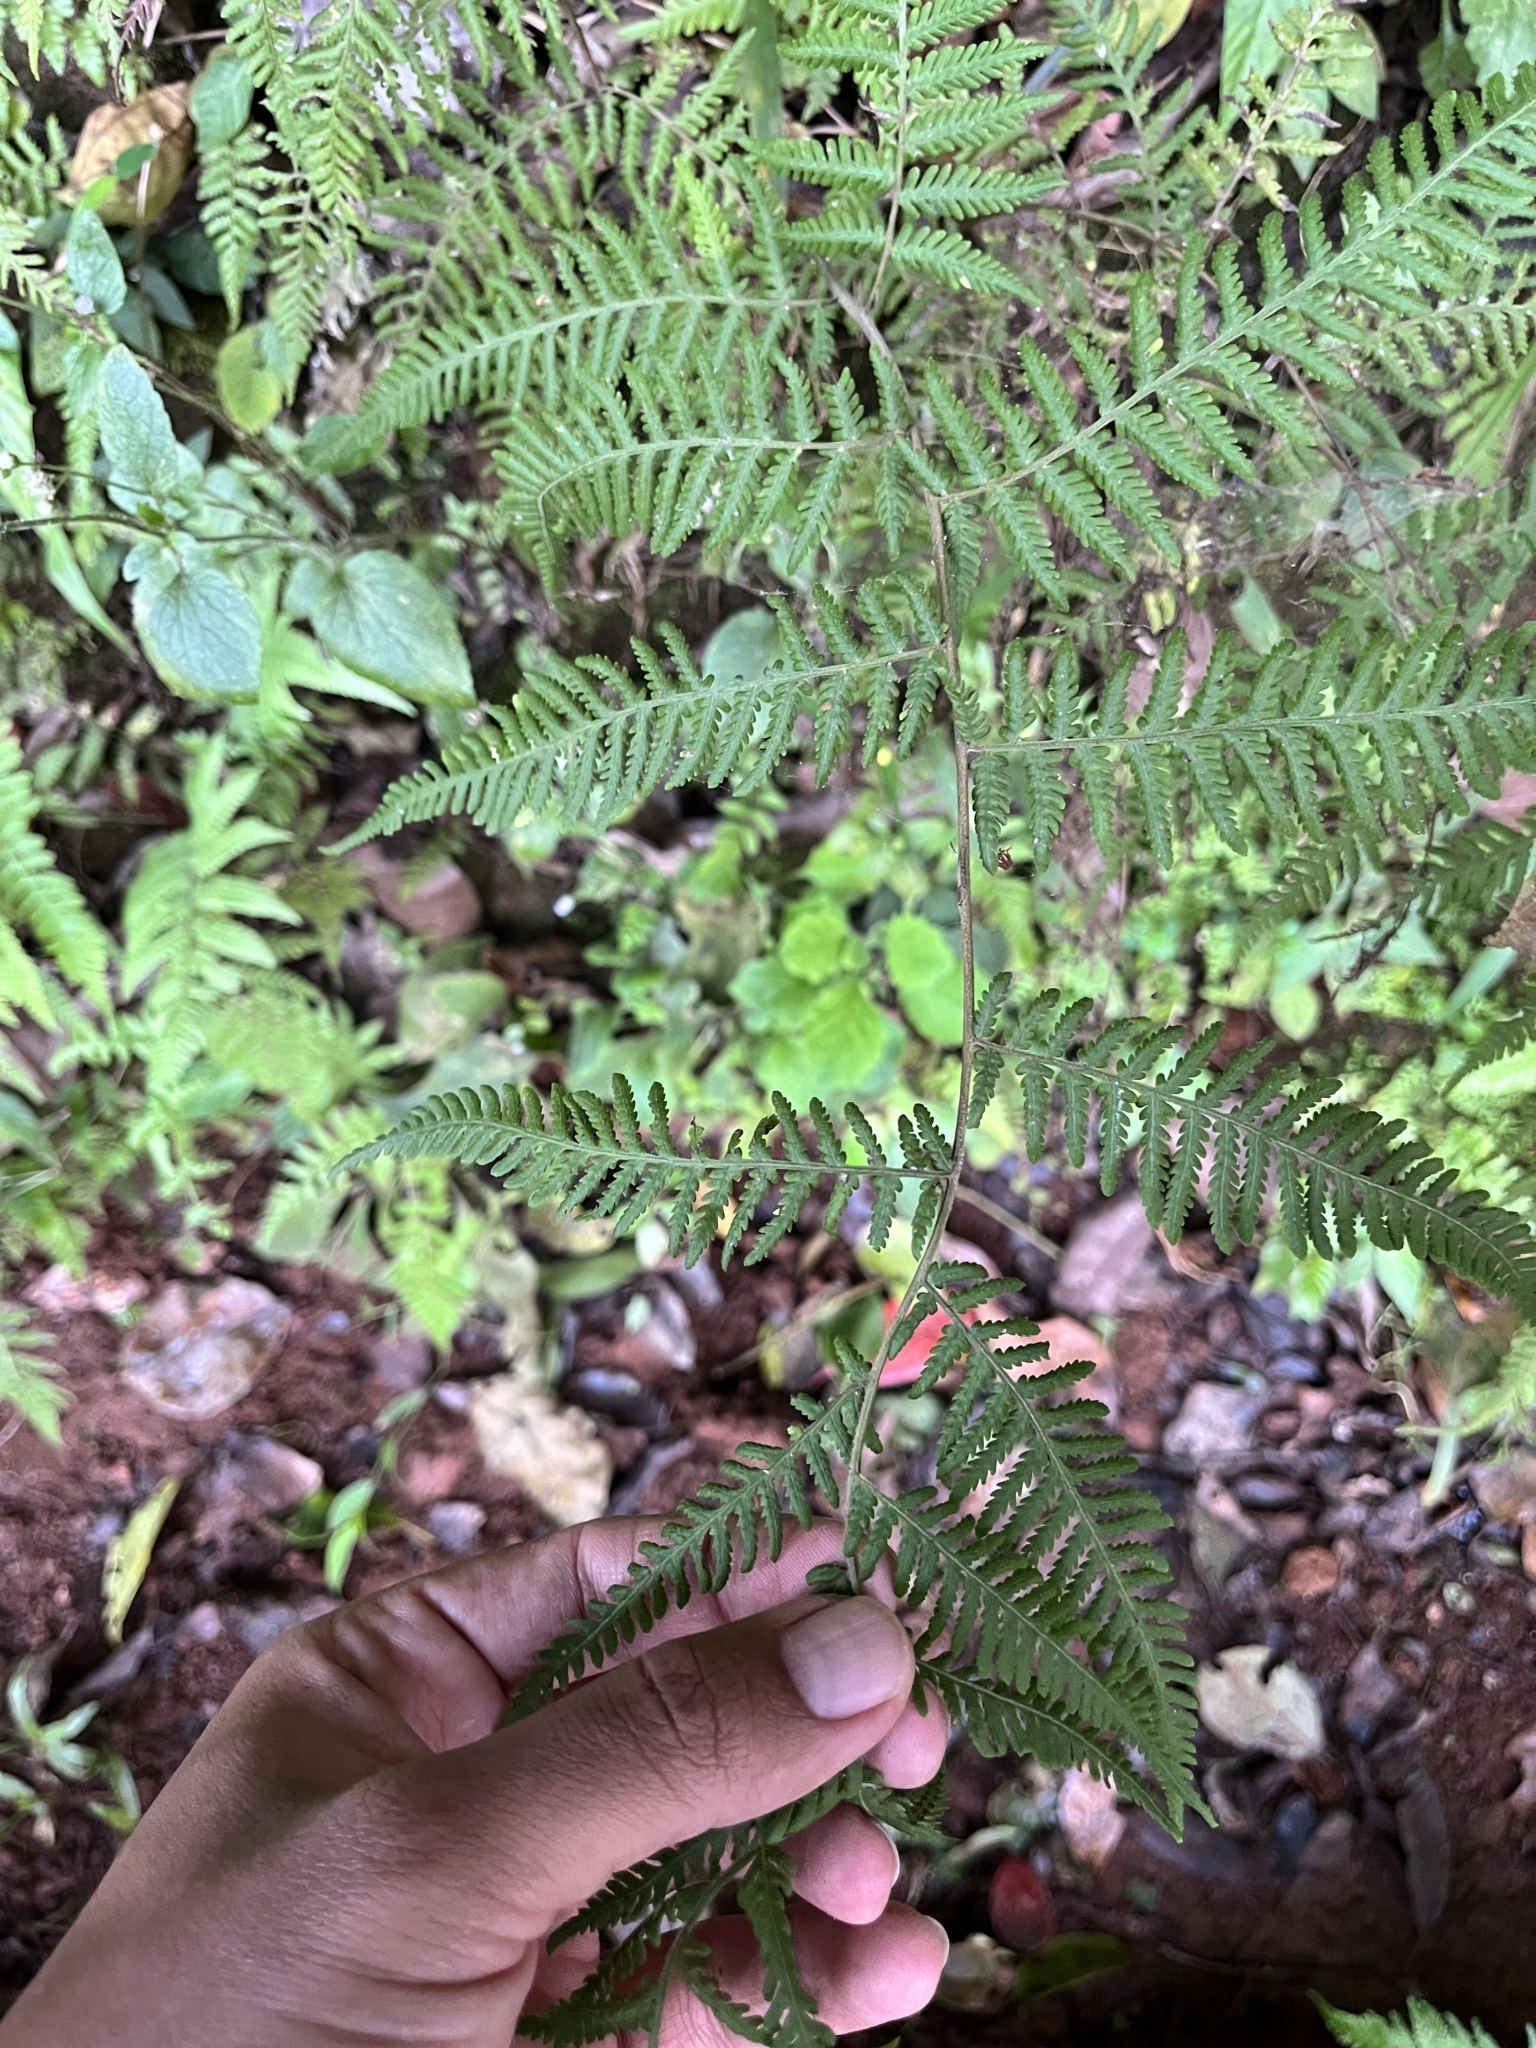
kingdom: Plantae
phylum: Tracheophyta
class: Polypodiopsida
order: Polypodiales
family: Dennstaedtiaceae
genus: Pteridium
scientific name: Pteridium aquilinum
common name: Bracken
